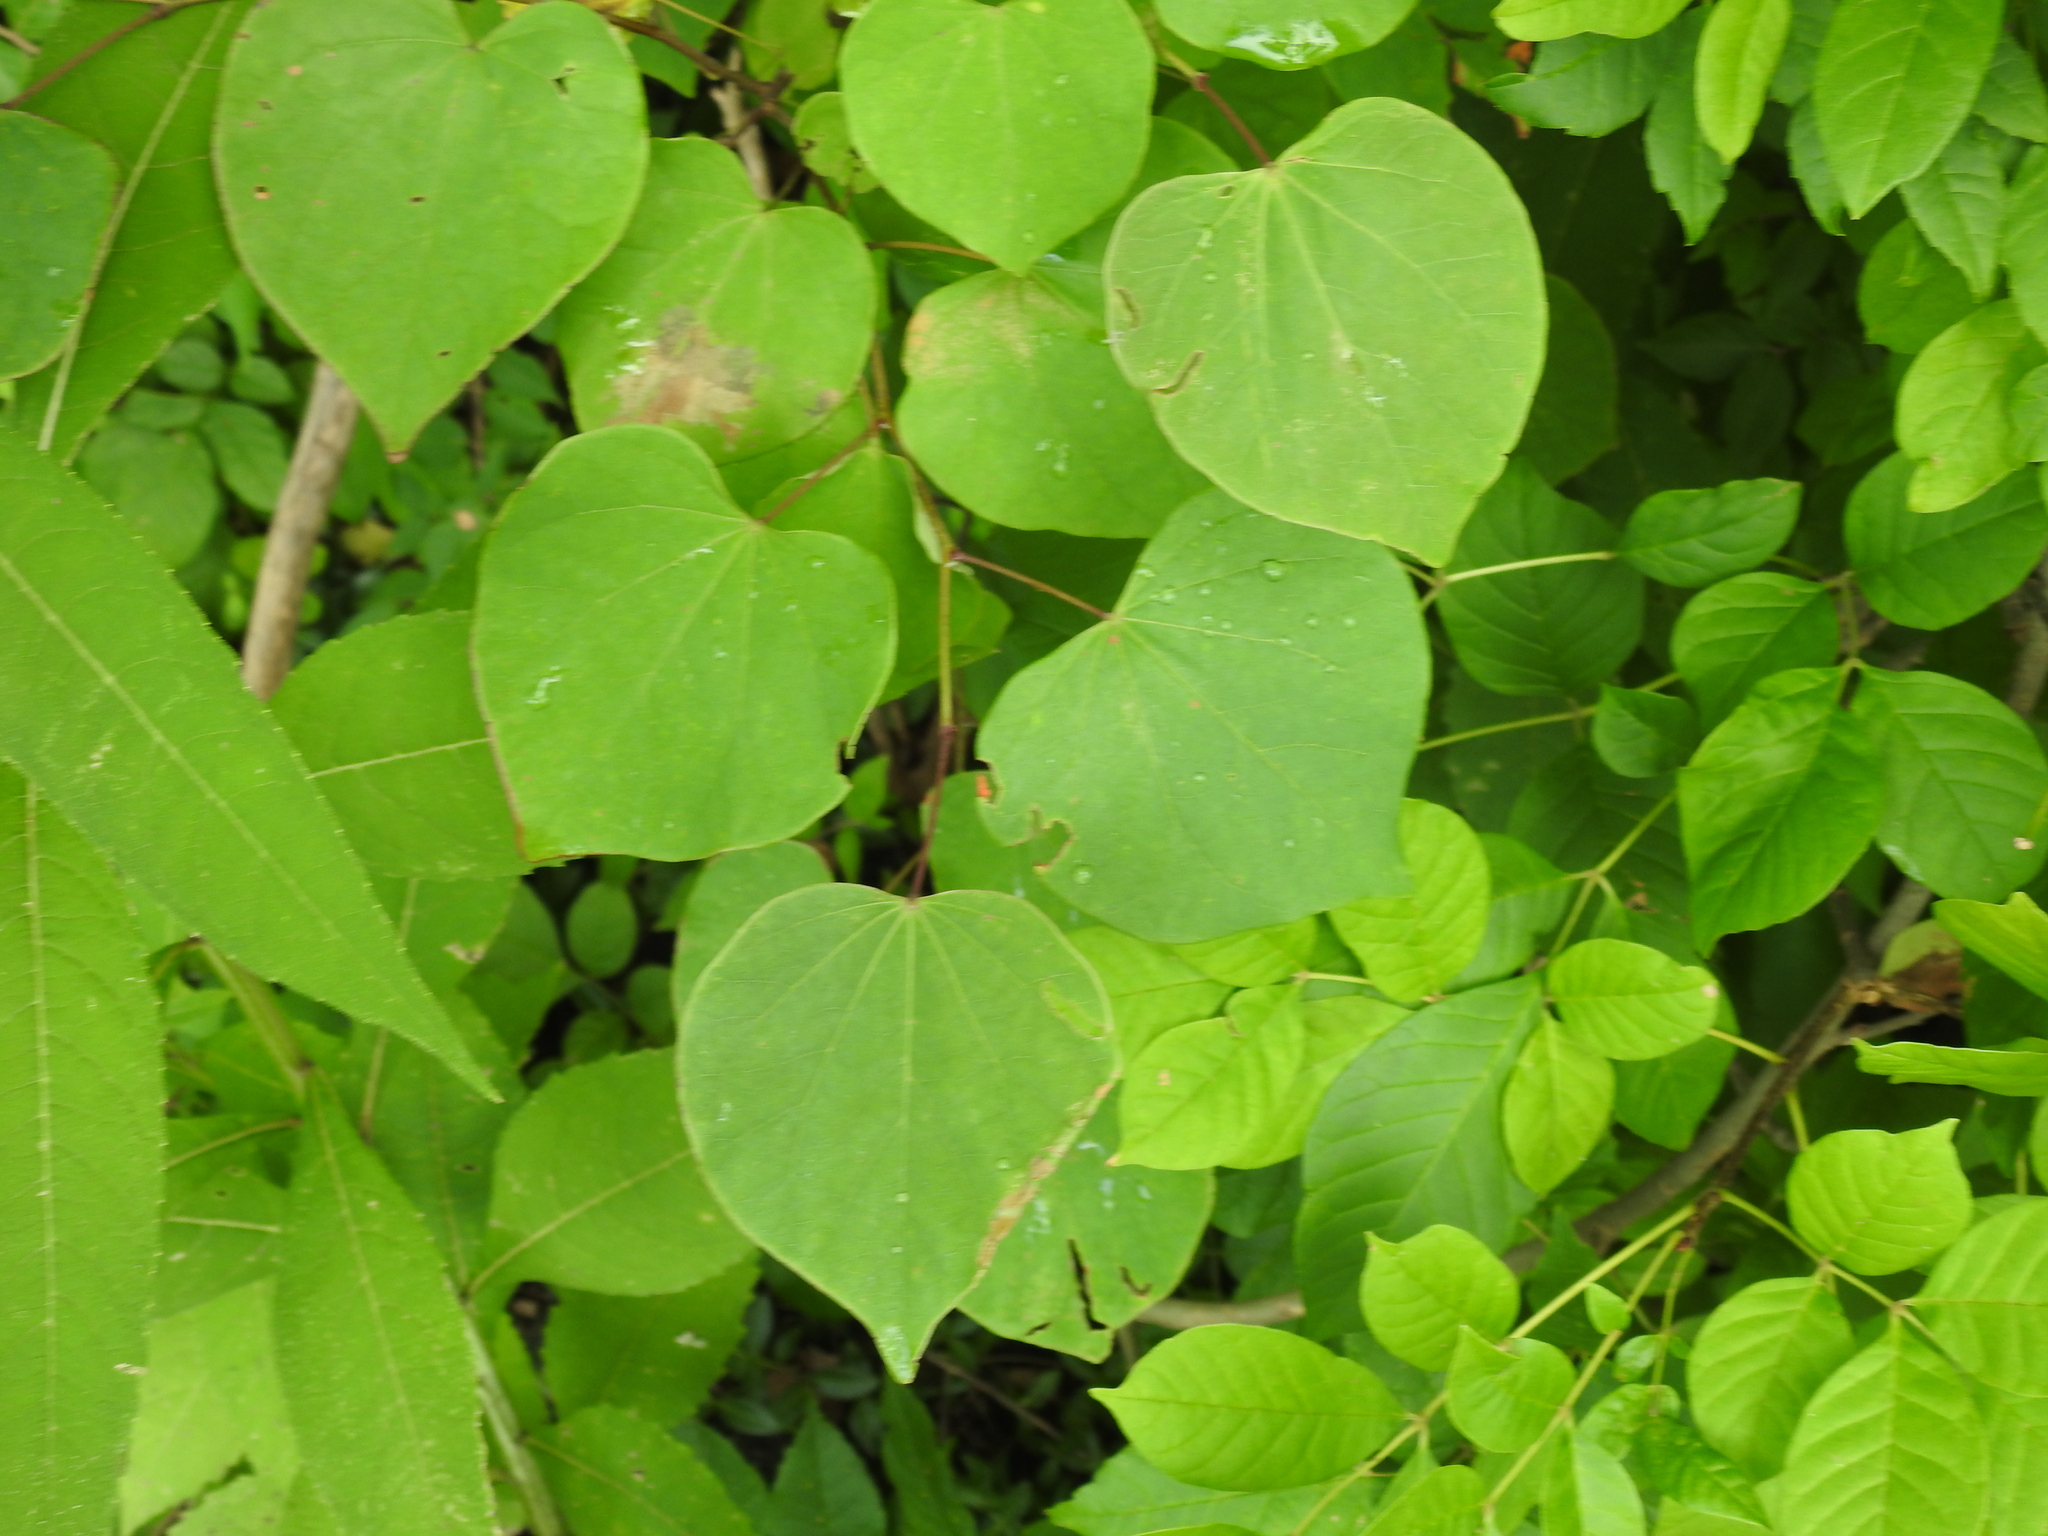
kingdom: Plantae
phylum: Tracheophyta
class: Magnoliopsida
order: Fabales
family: Fabaceae
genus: Cercis
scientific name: Cercis canadensis
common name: Eastern redbud
